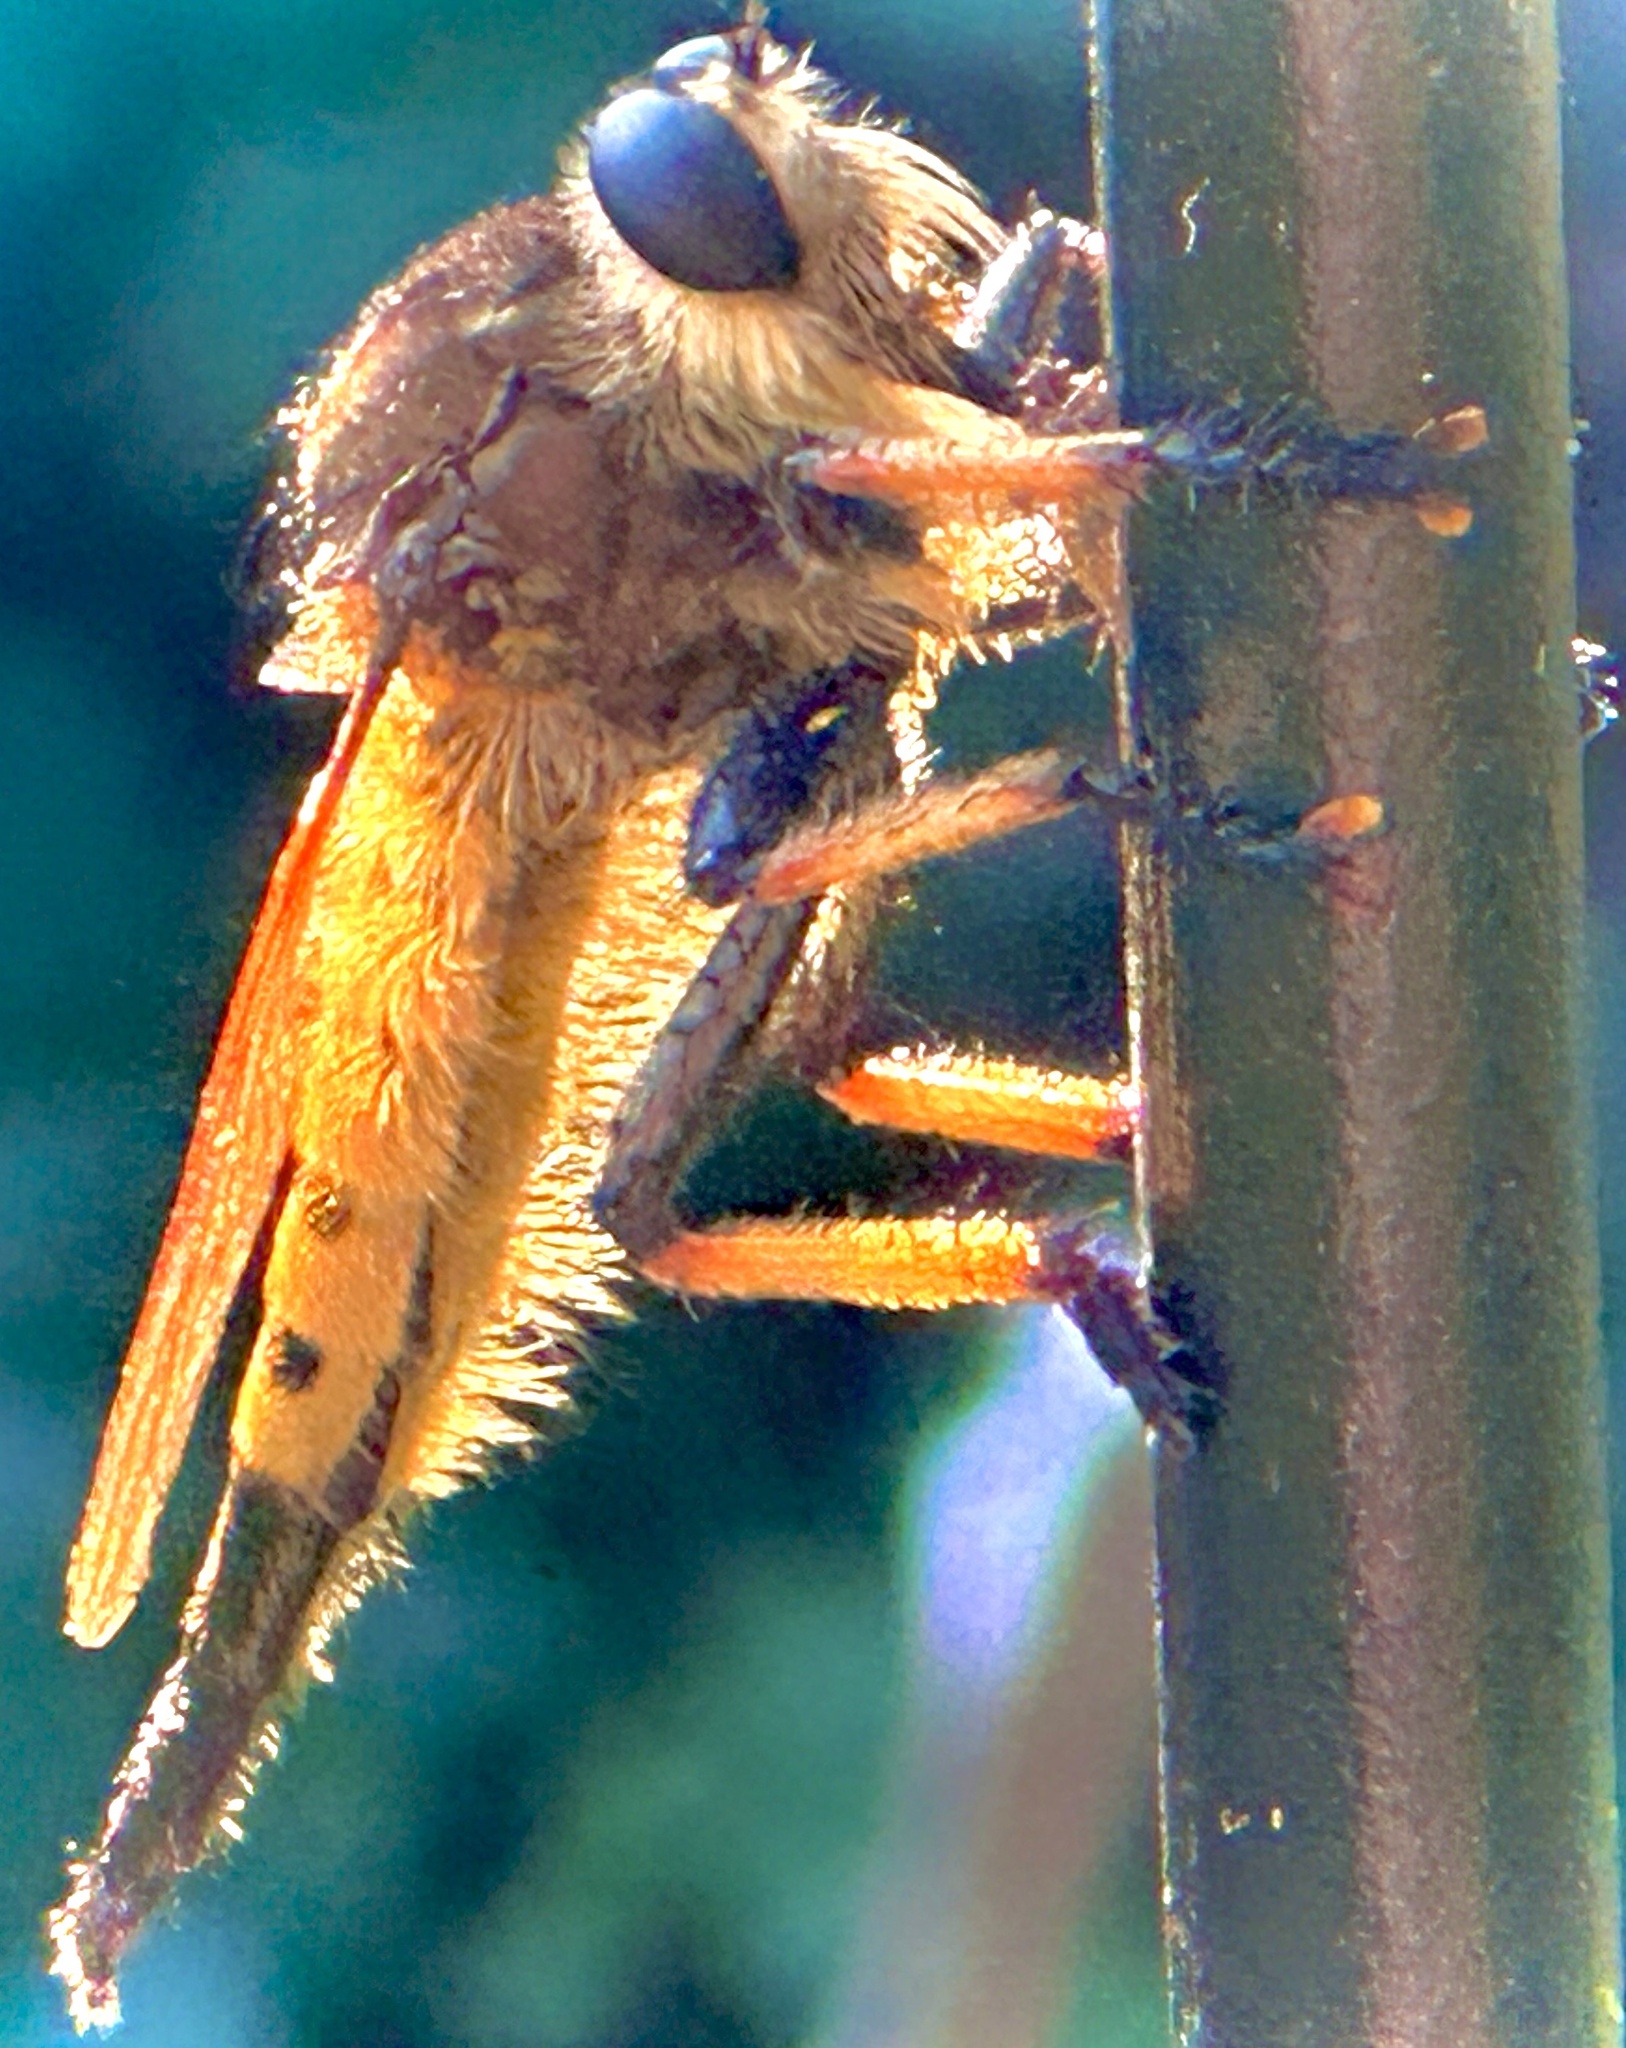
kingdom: Animalia
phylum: Arthropoda
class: Insecta
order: Diptera
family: Asilidae
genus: Promachus
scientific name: Promachus rufipes
